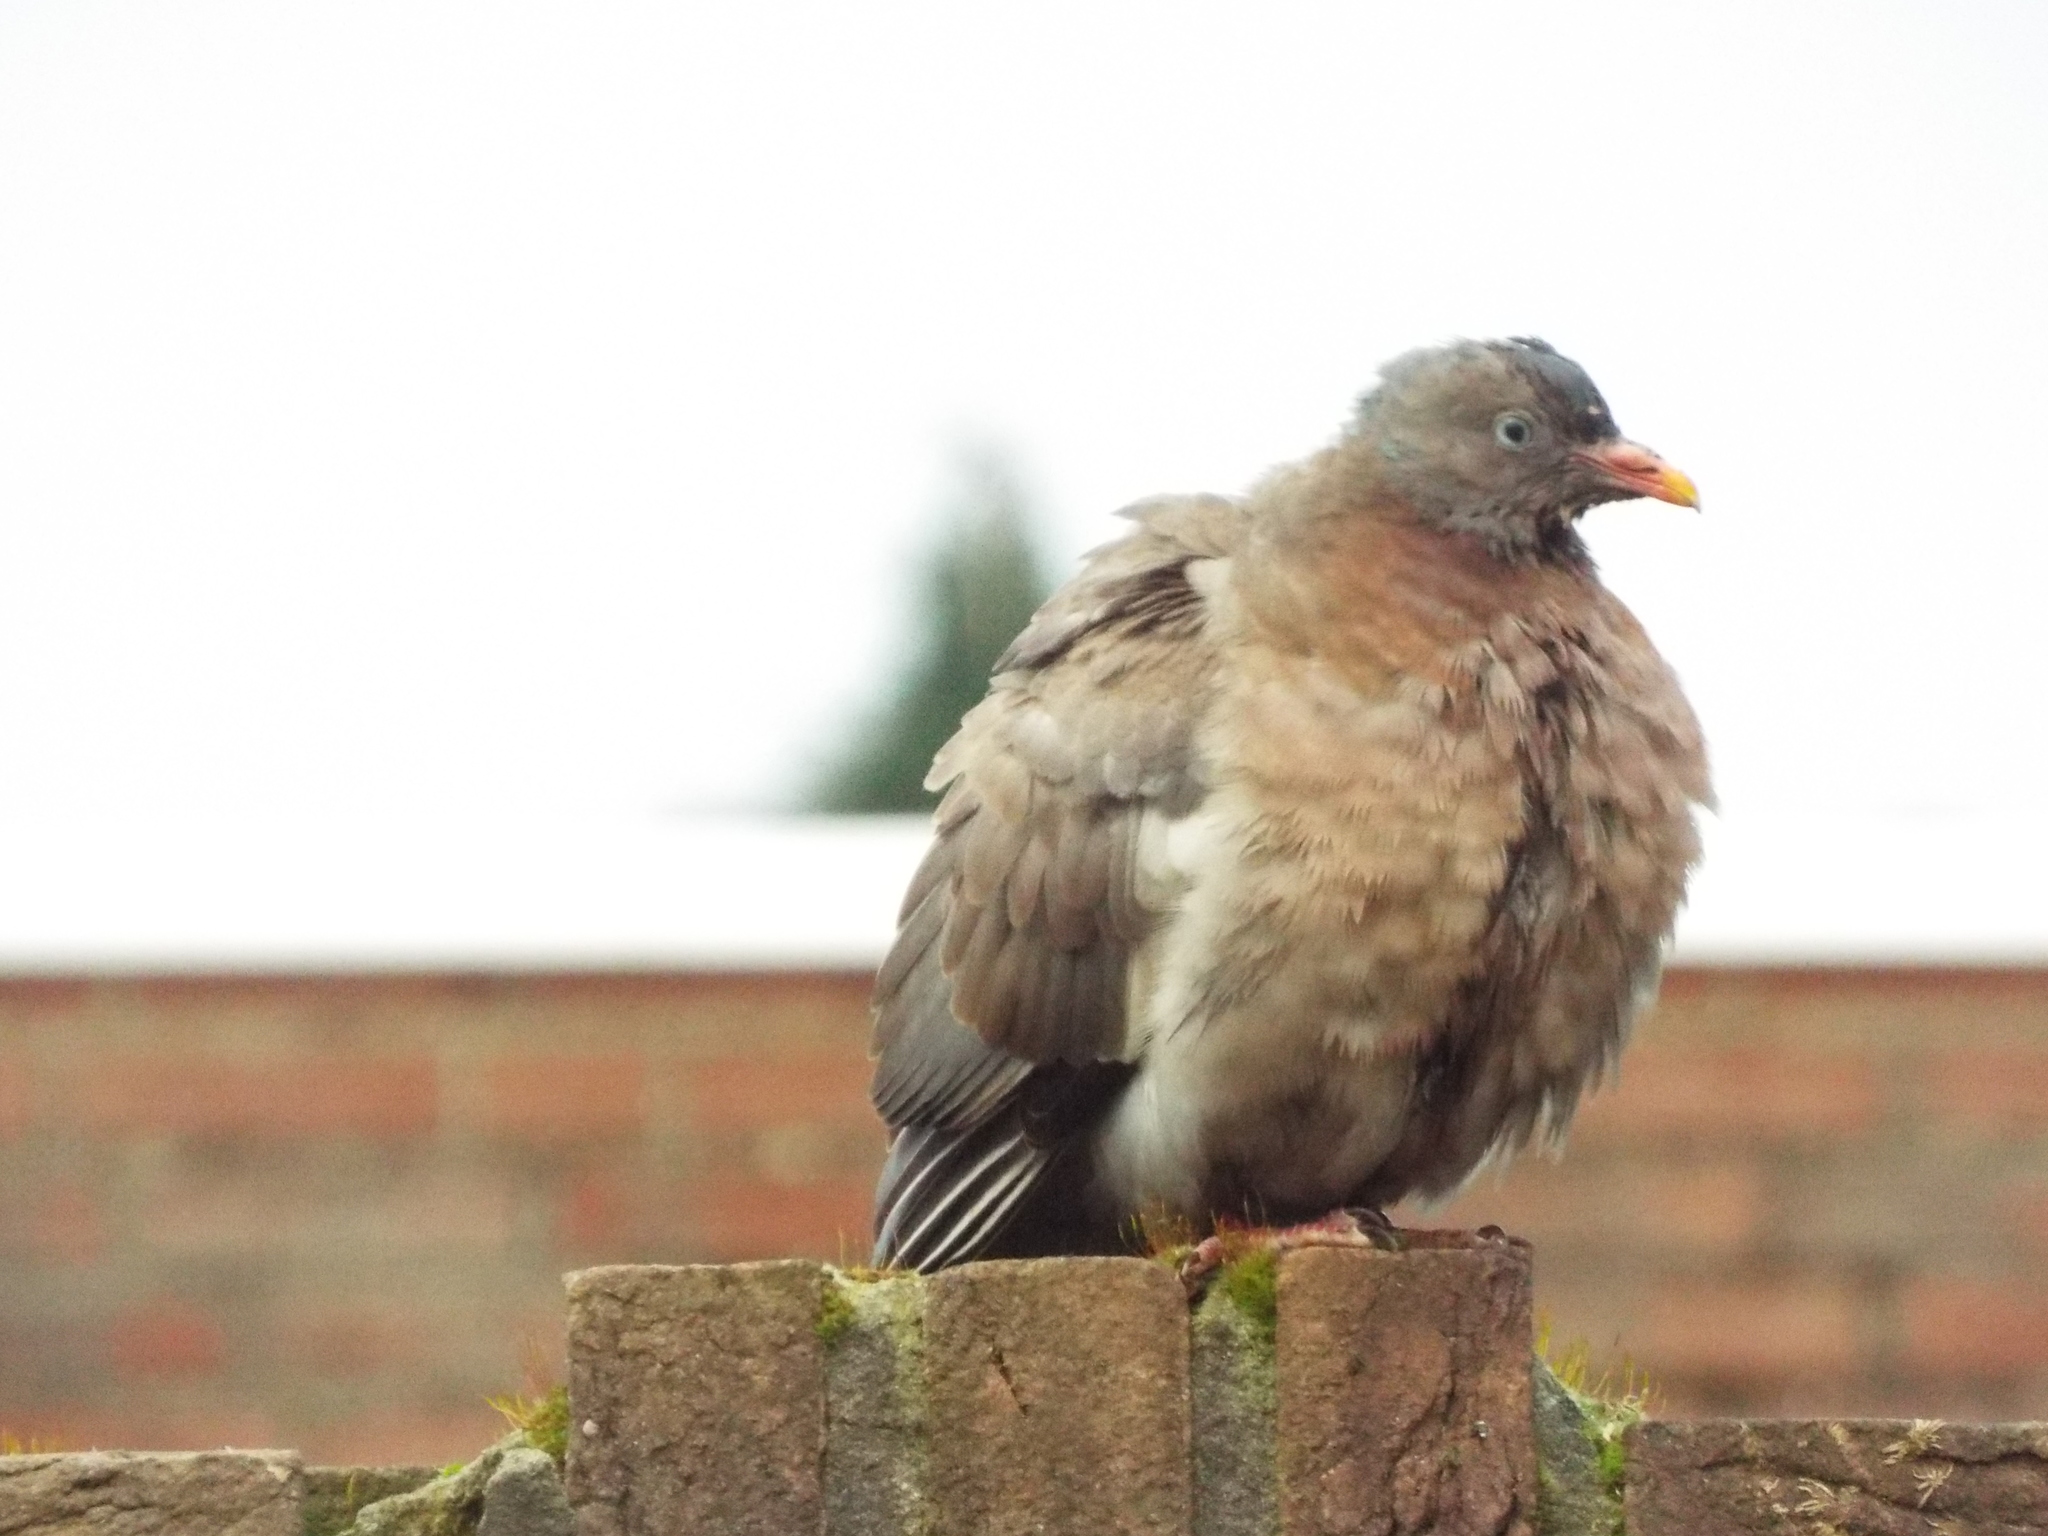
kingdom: Animalia
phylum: Chordata
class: Aves
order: Columbiformes
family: Columbidae
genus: Columba
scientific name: Columba palumbus
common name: Common wood pigeon
